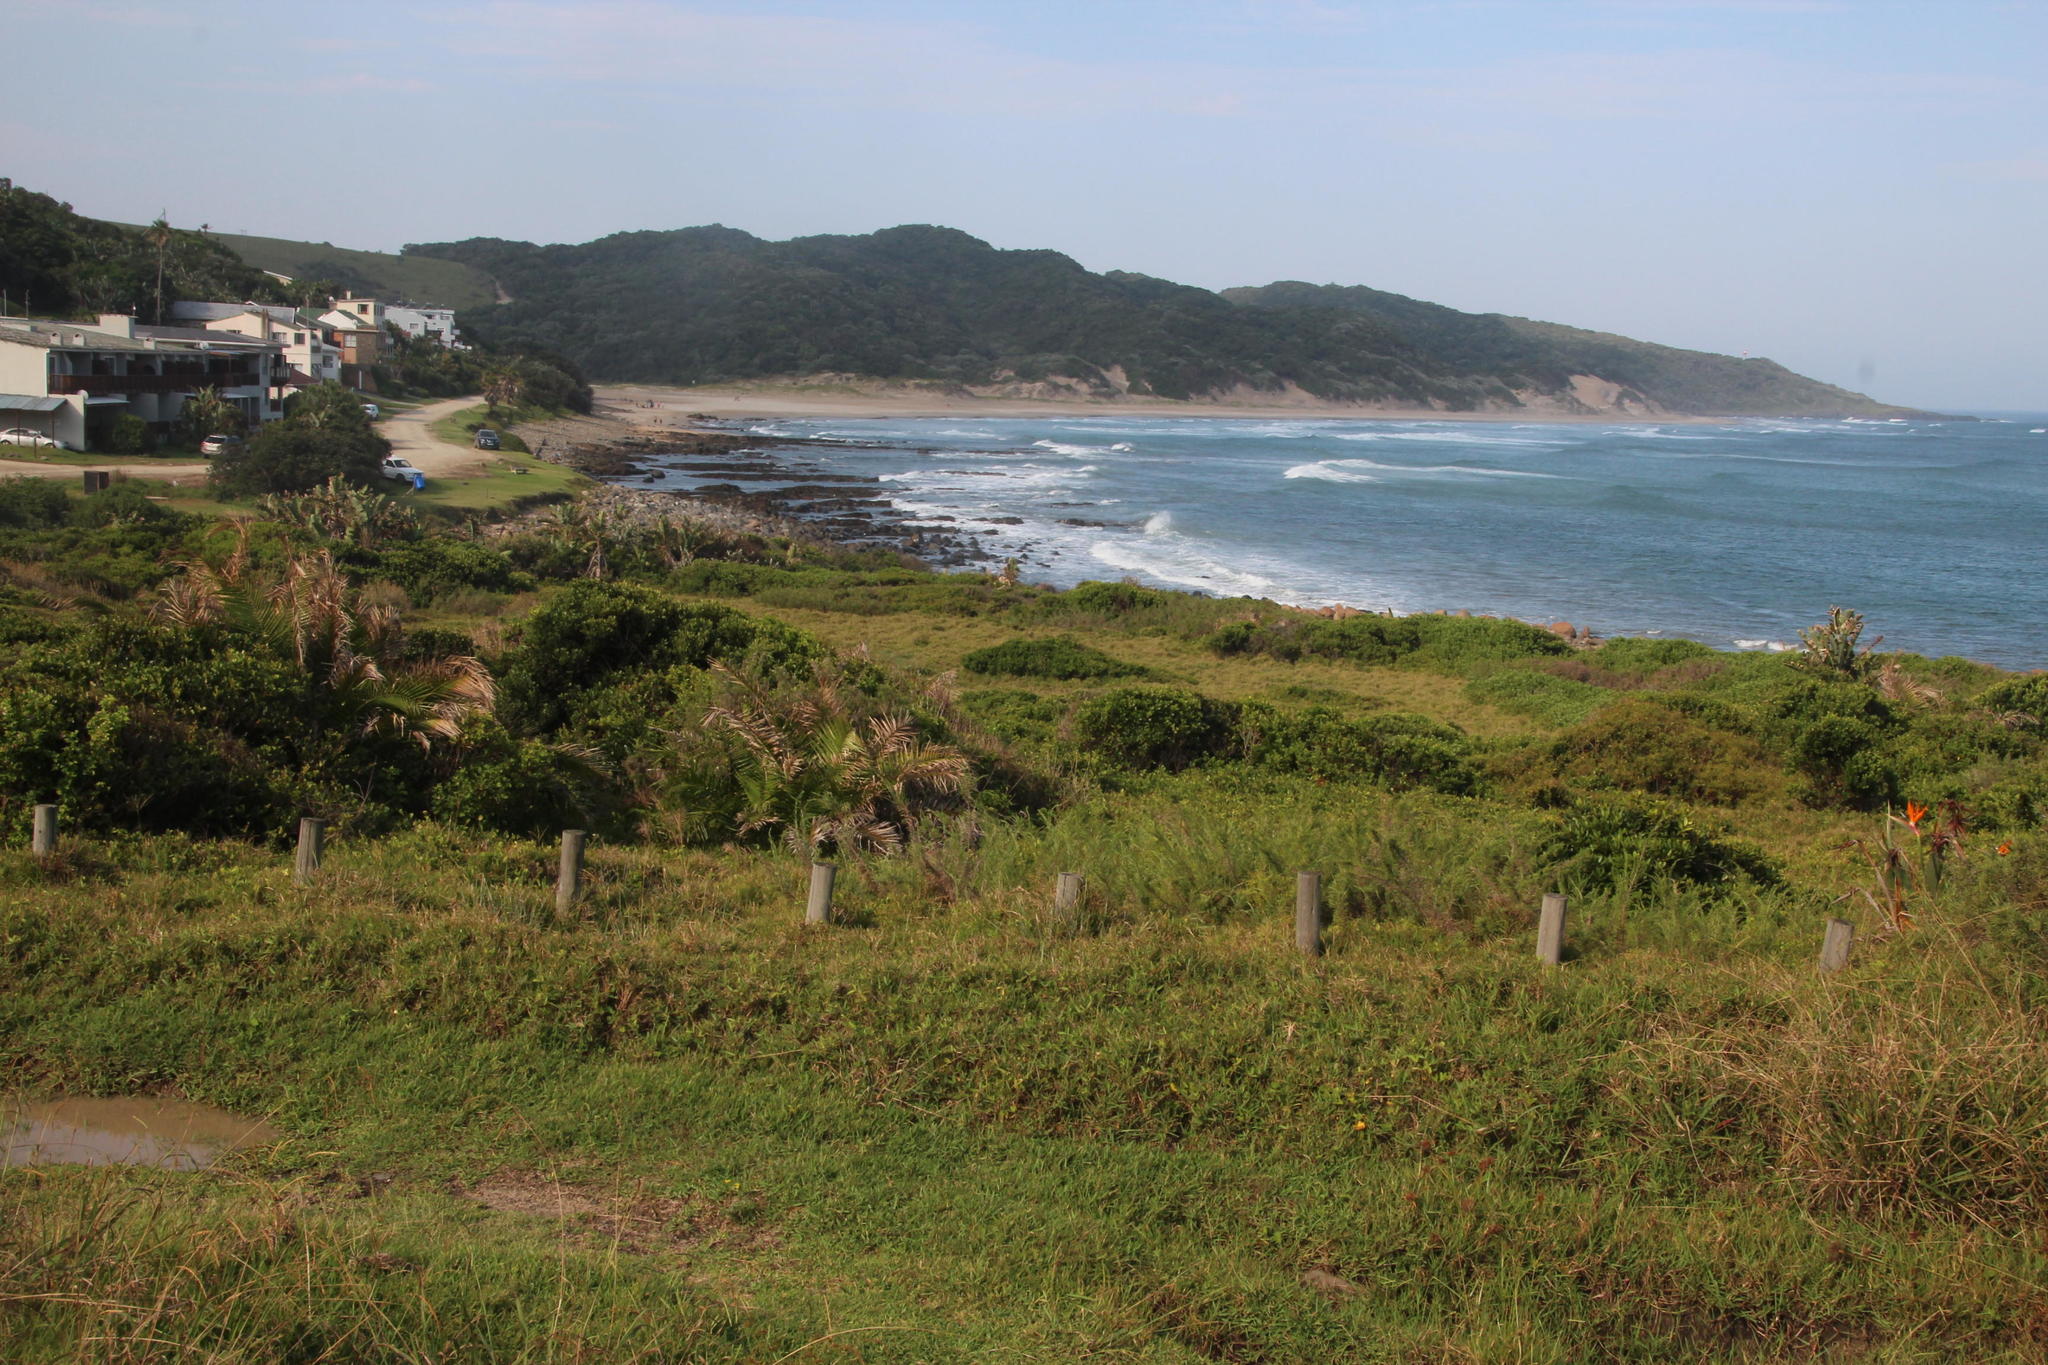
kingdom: Plantae
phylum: Tracheophyta
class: Liliopsida
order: Zingiberales
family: Strelitziaceae
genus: Strelitzia
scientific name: Strelitzia nicolai
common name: Bird-of-paradise tree
